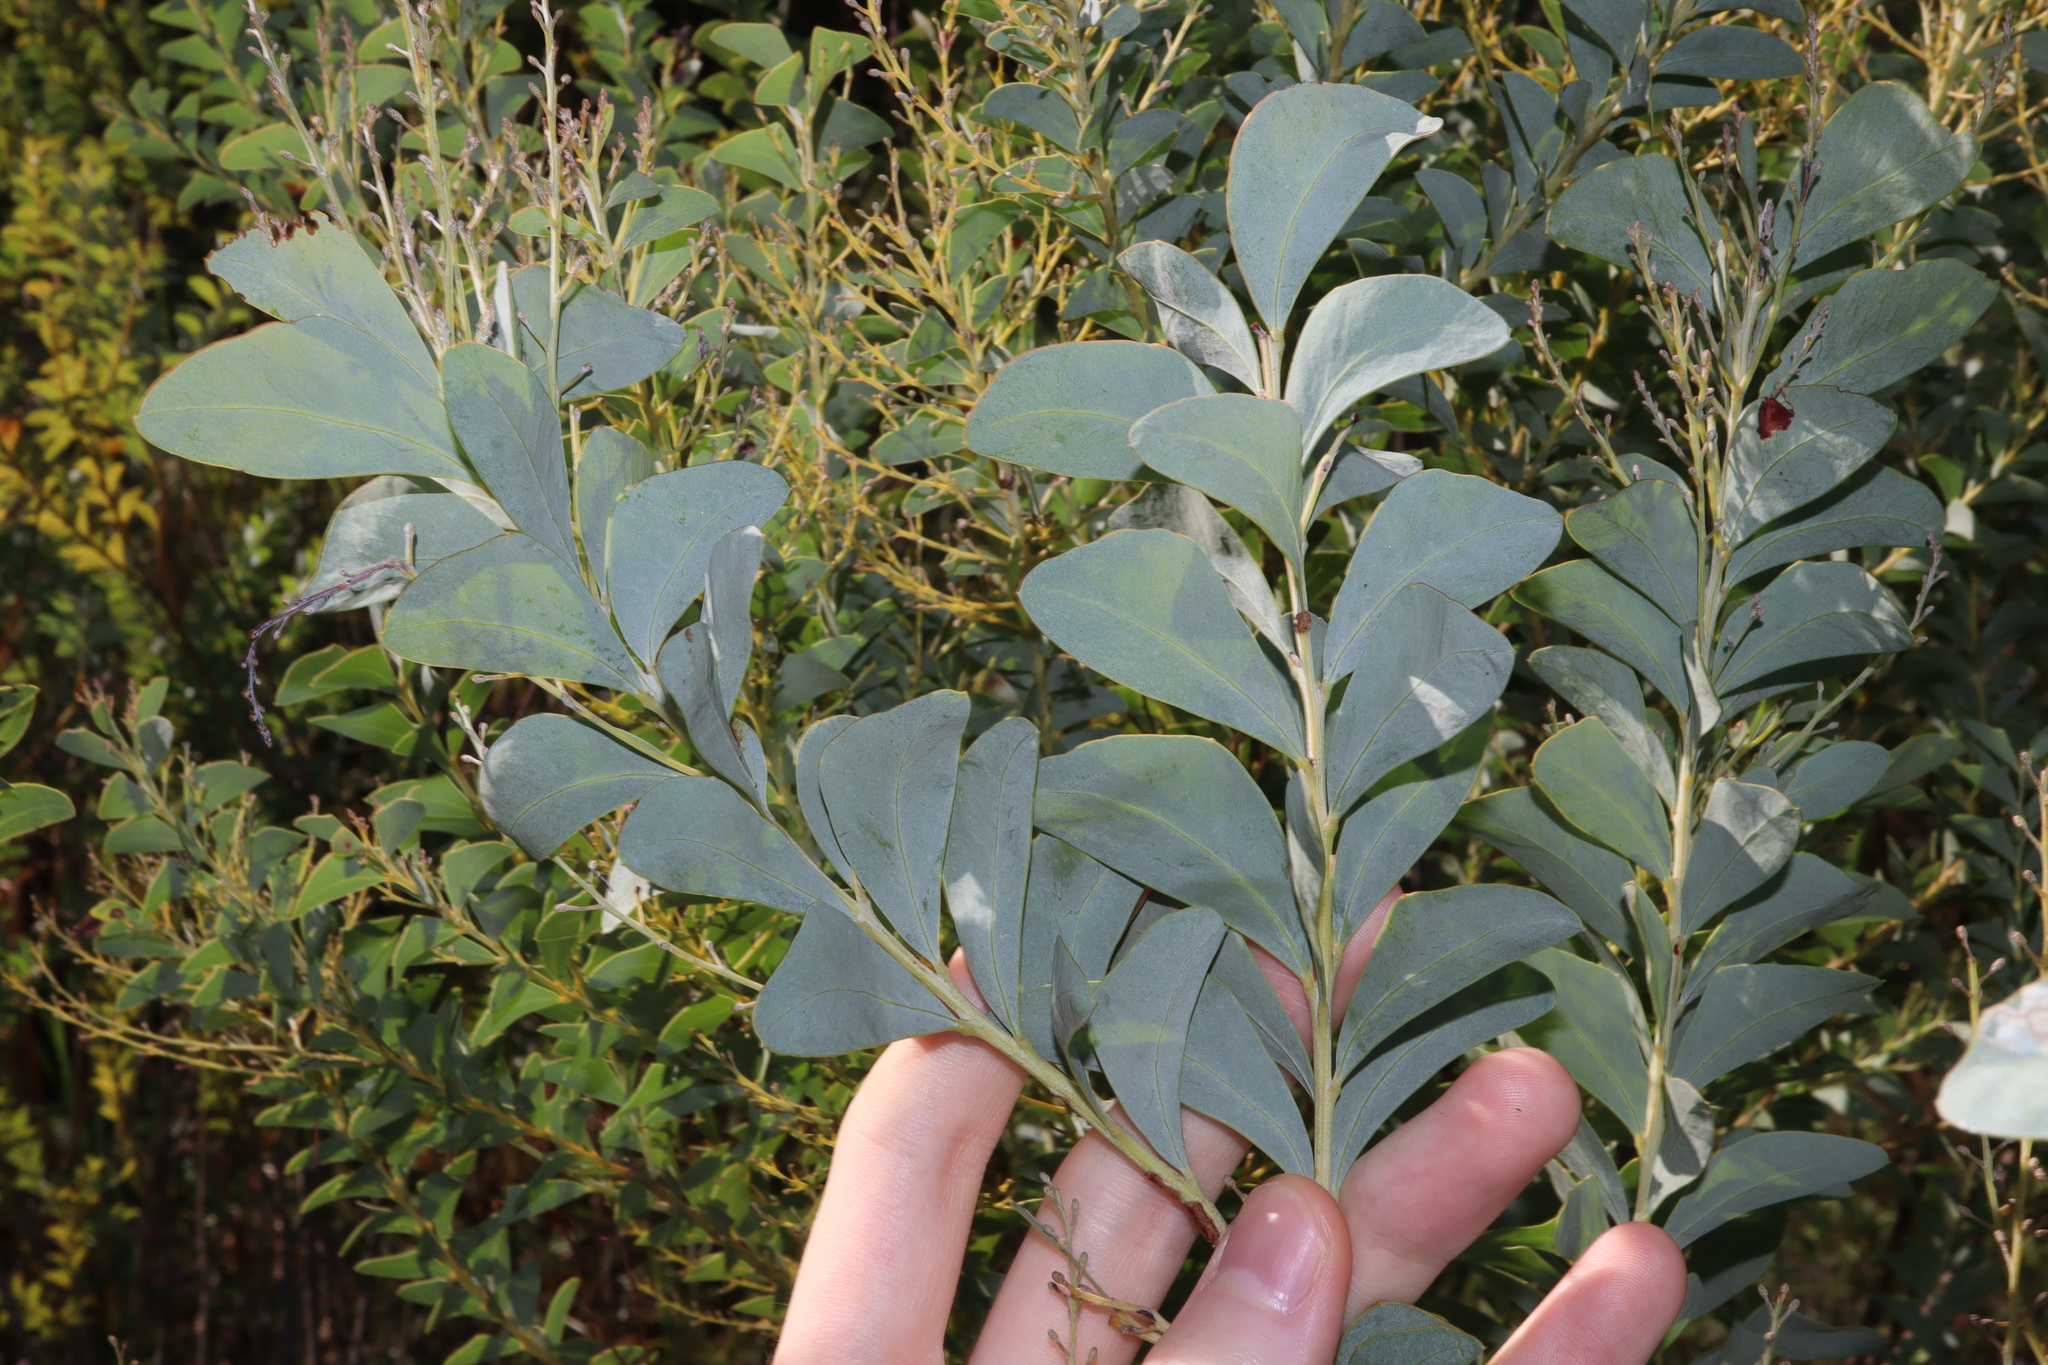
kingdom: Plantae
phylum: Tracheophyta
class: Magnoliopsida
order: Fabales
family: Fabaceae
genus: Acacia
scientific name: Acacia cultriformis
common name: Knife acacia
